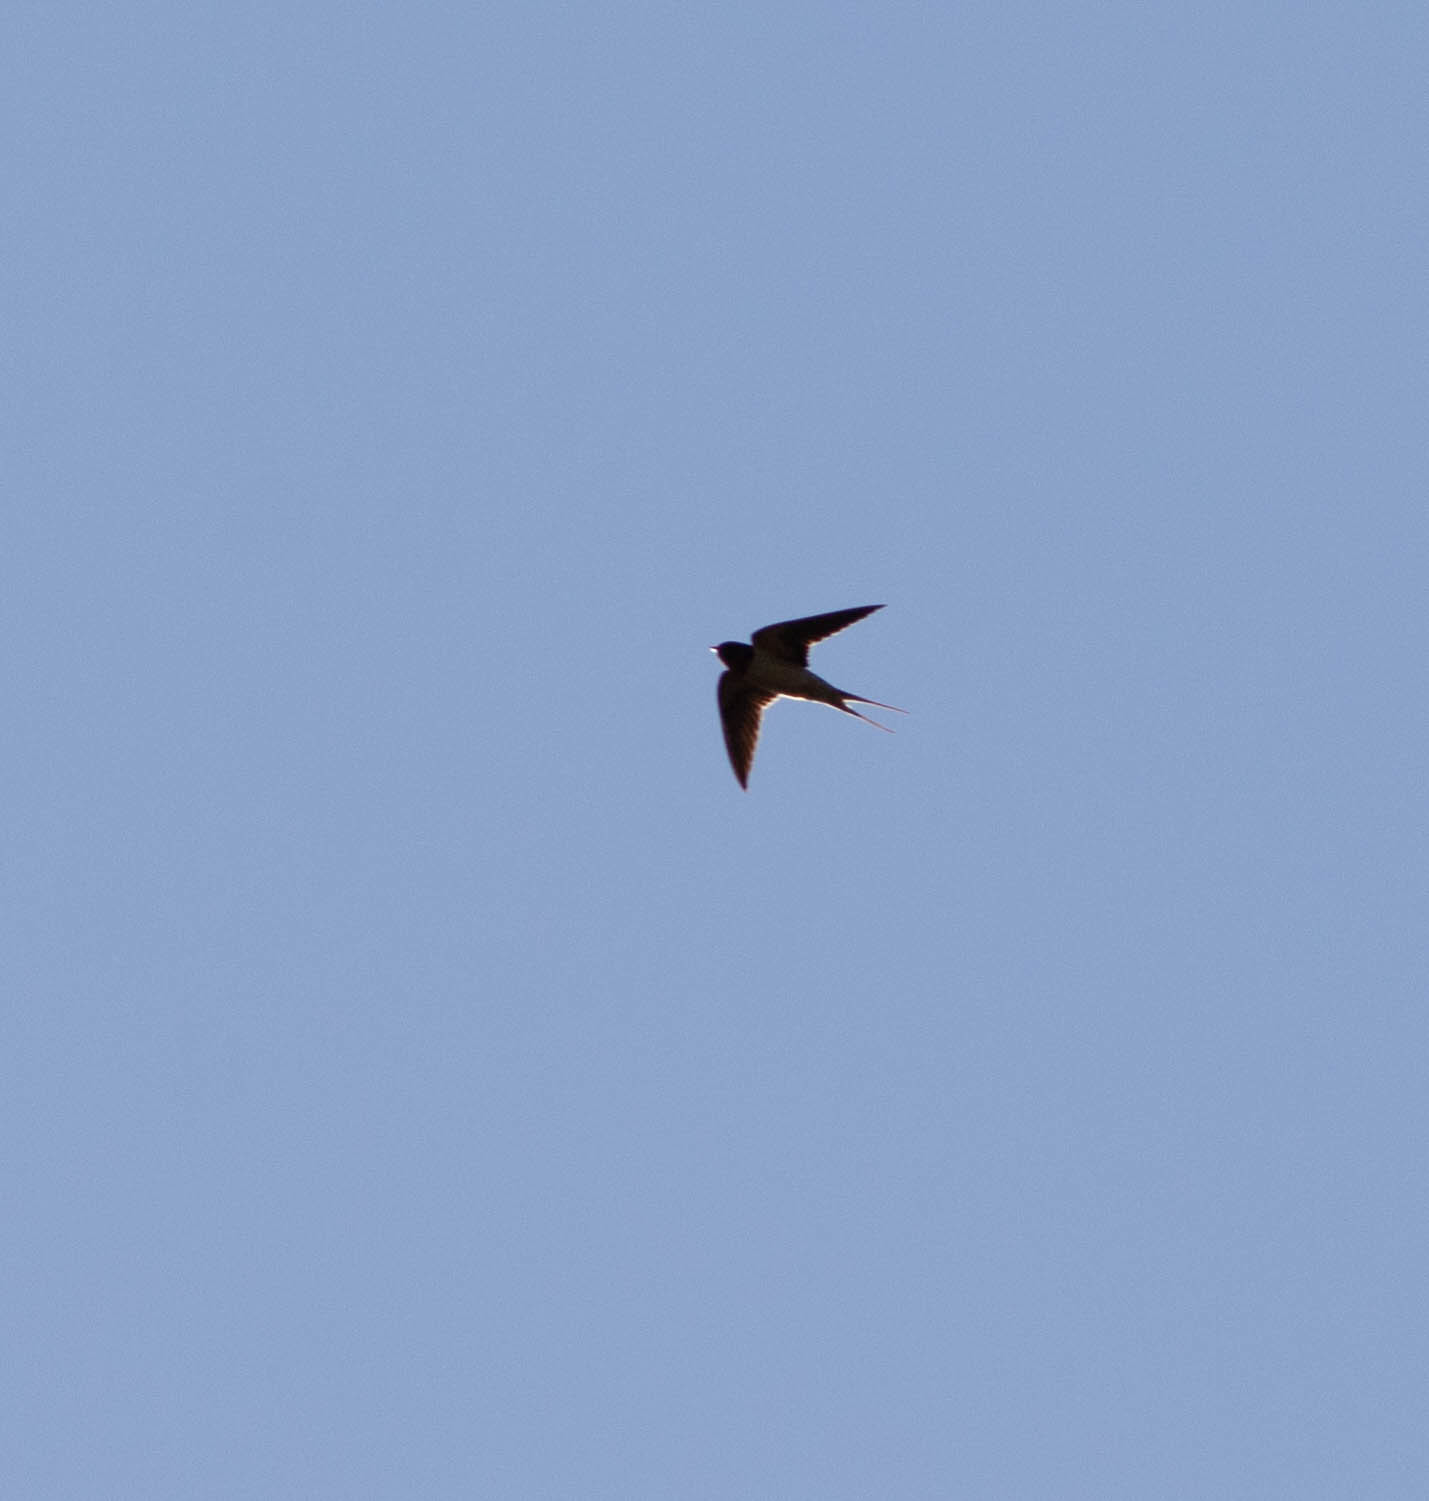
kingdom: Animalia
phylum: Chordata
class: Aves
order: Passeriformes
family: Hirundinidae
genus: Hirundo
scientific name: Hirundo rustica
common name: Barn swallow
